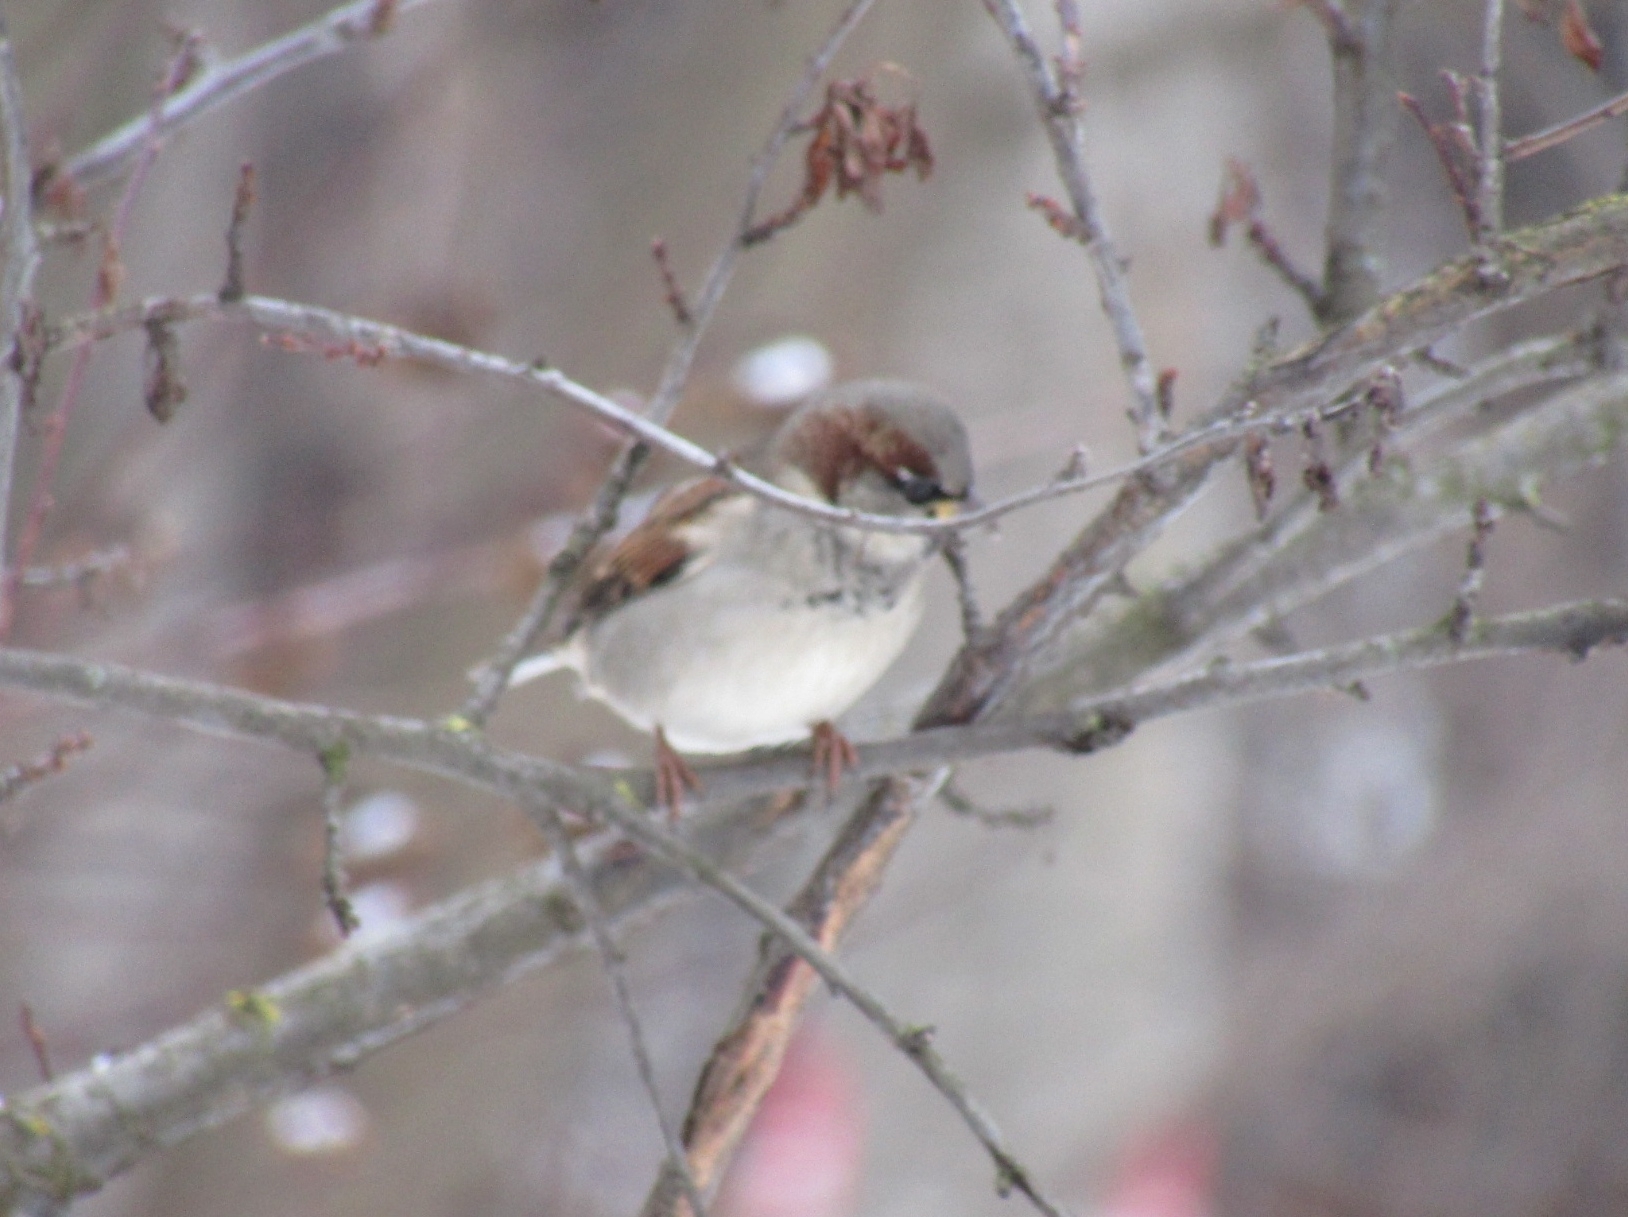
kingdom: Animalia
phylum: Chordata
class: Aves
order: Passeriformes
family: Passeridae
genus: Passer
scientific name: Passer domesticus
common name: House sparrow
